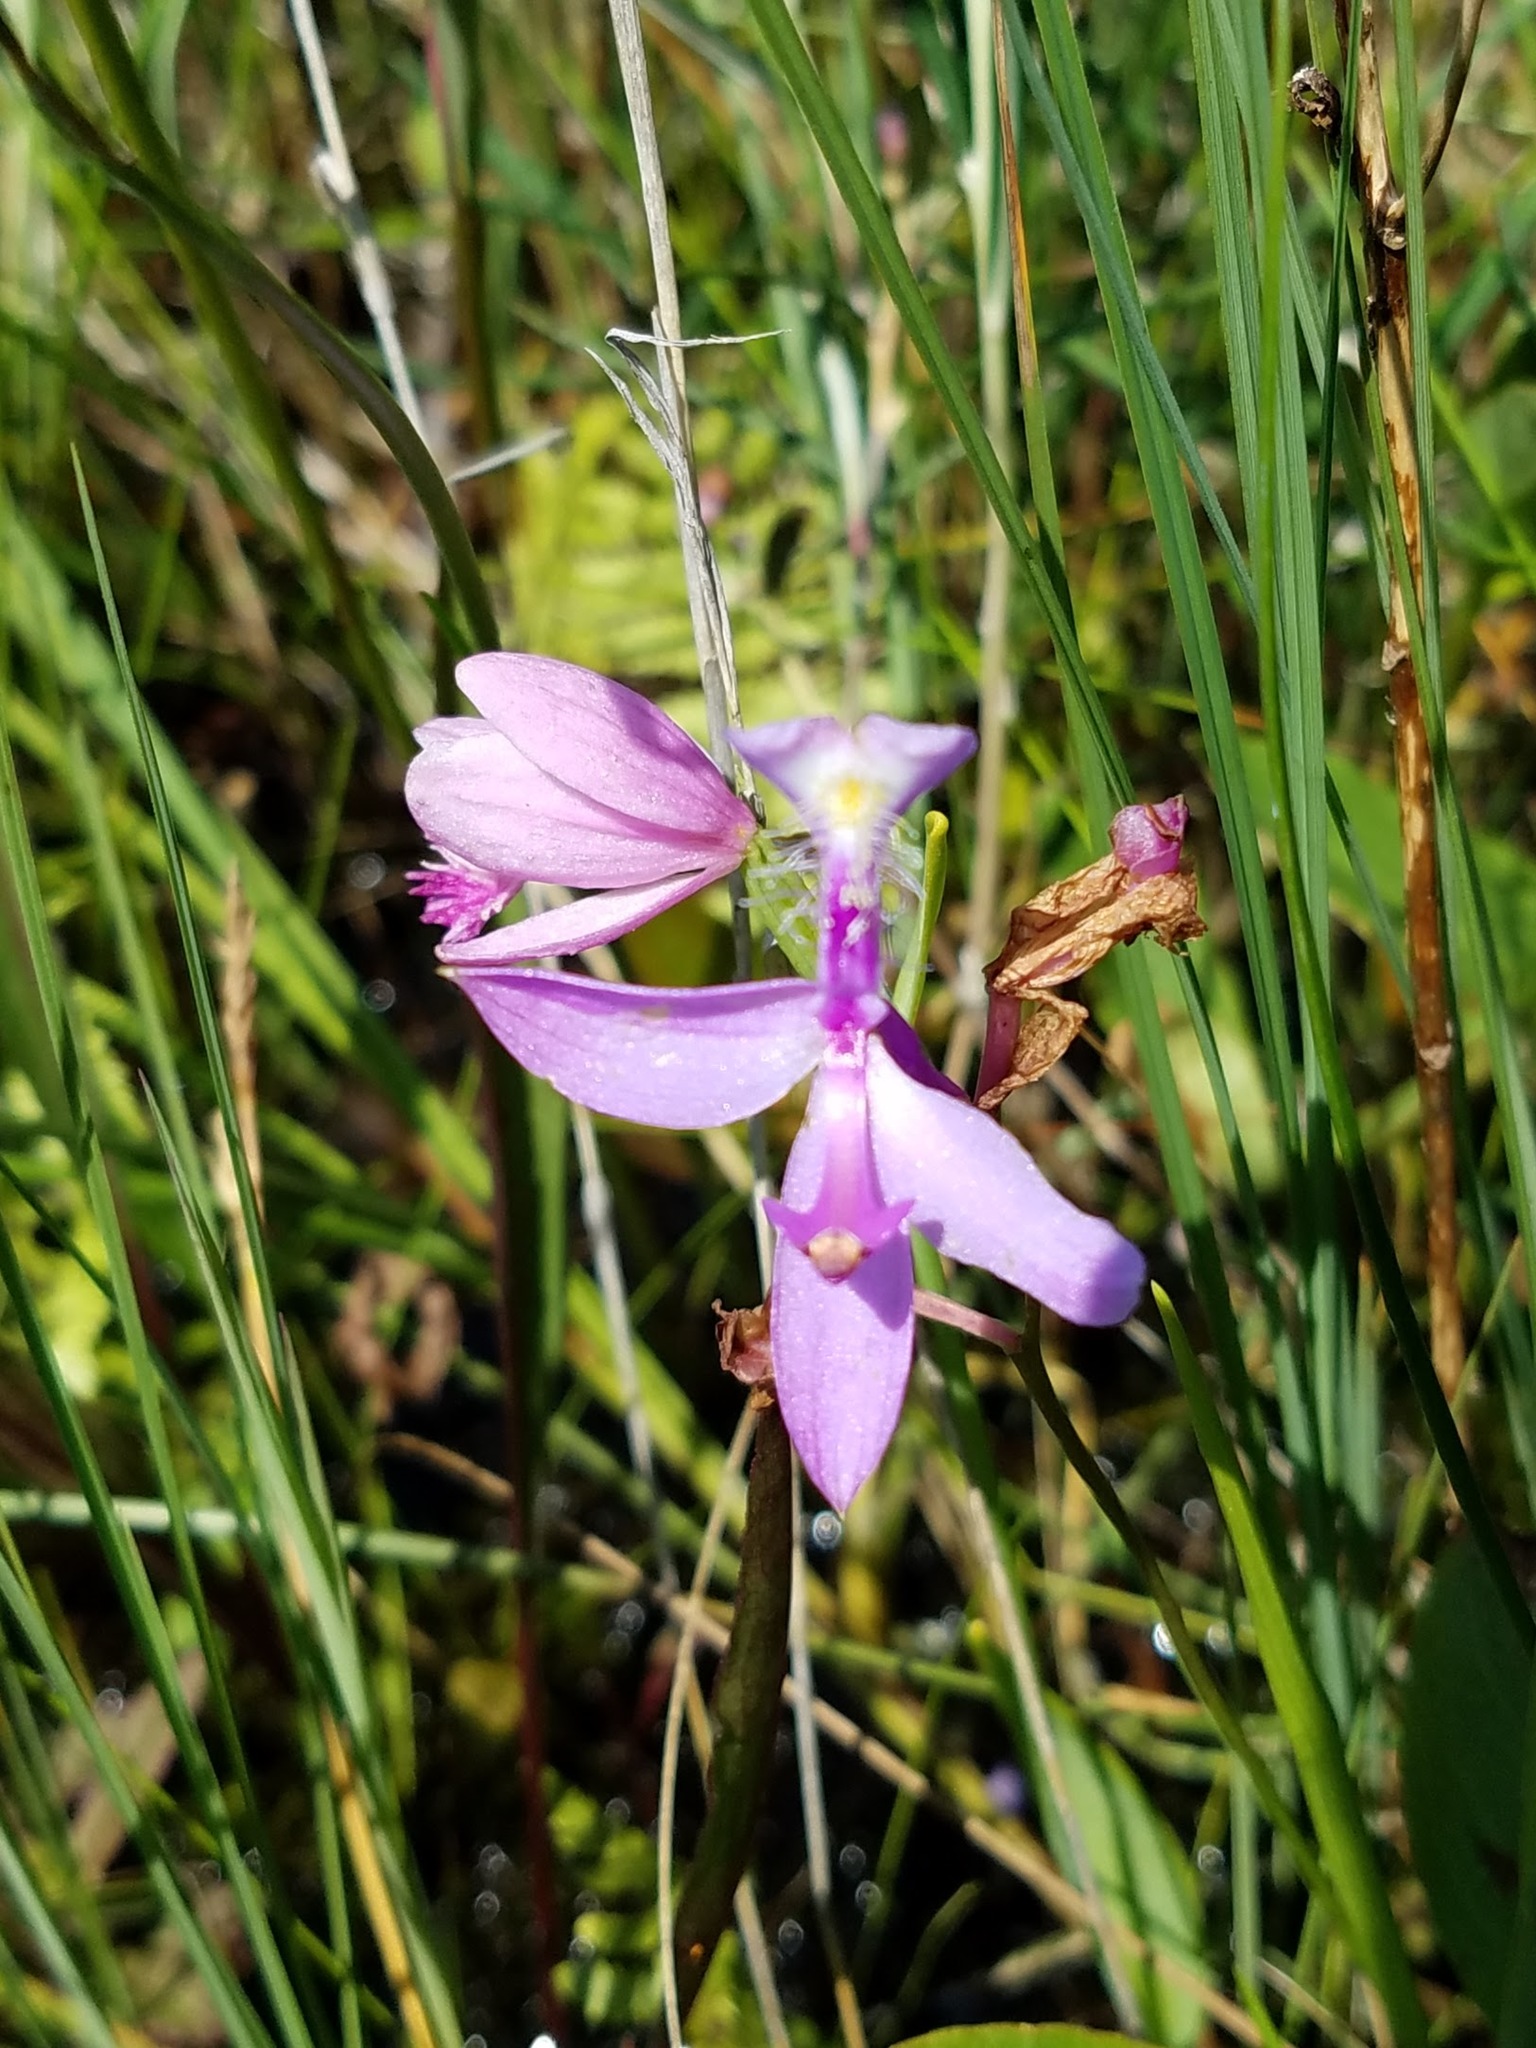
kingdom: Plantae
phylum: Tracheophyta
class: Liliopsida
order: Asparagales
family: Orchidaceae
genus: Calopogon
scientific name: Calopogon tuberosus
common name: Grass-pink
